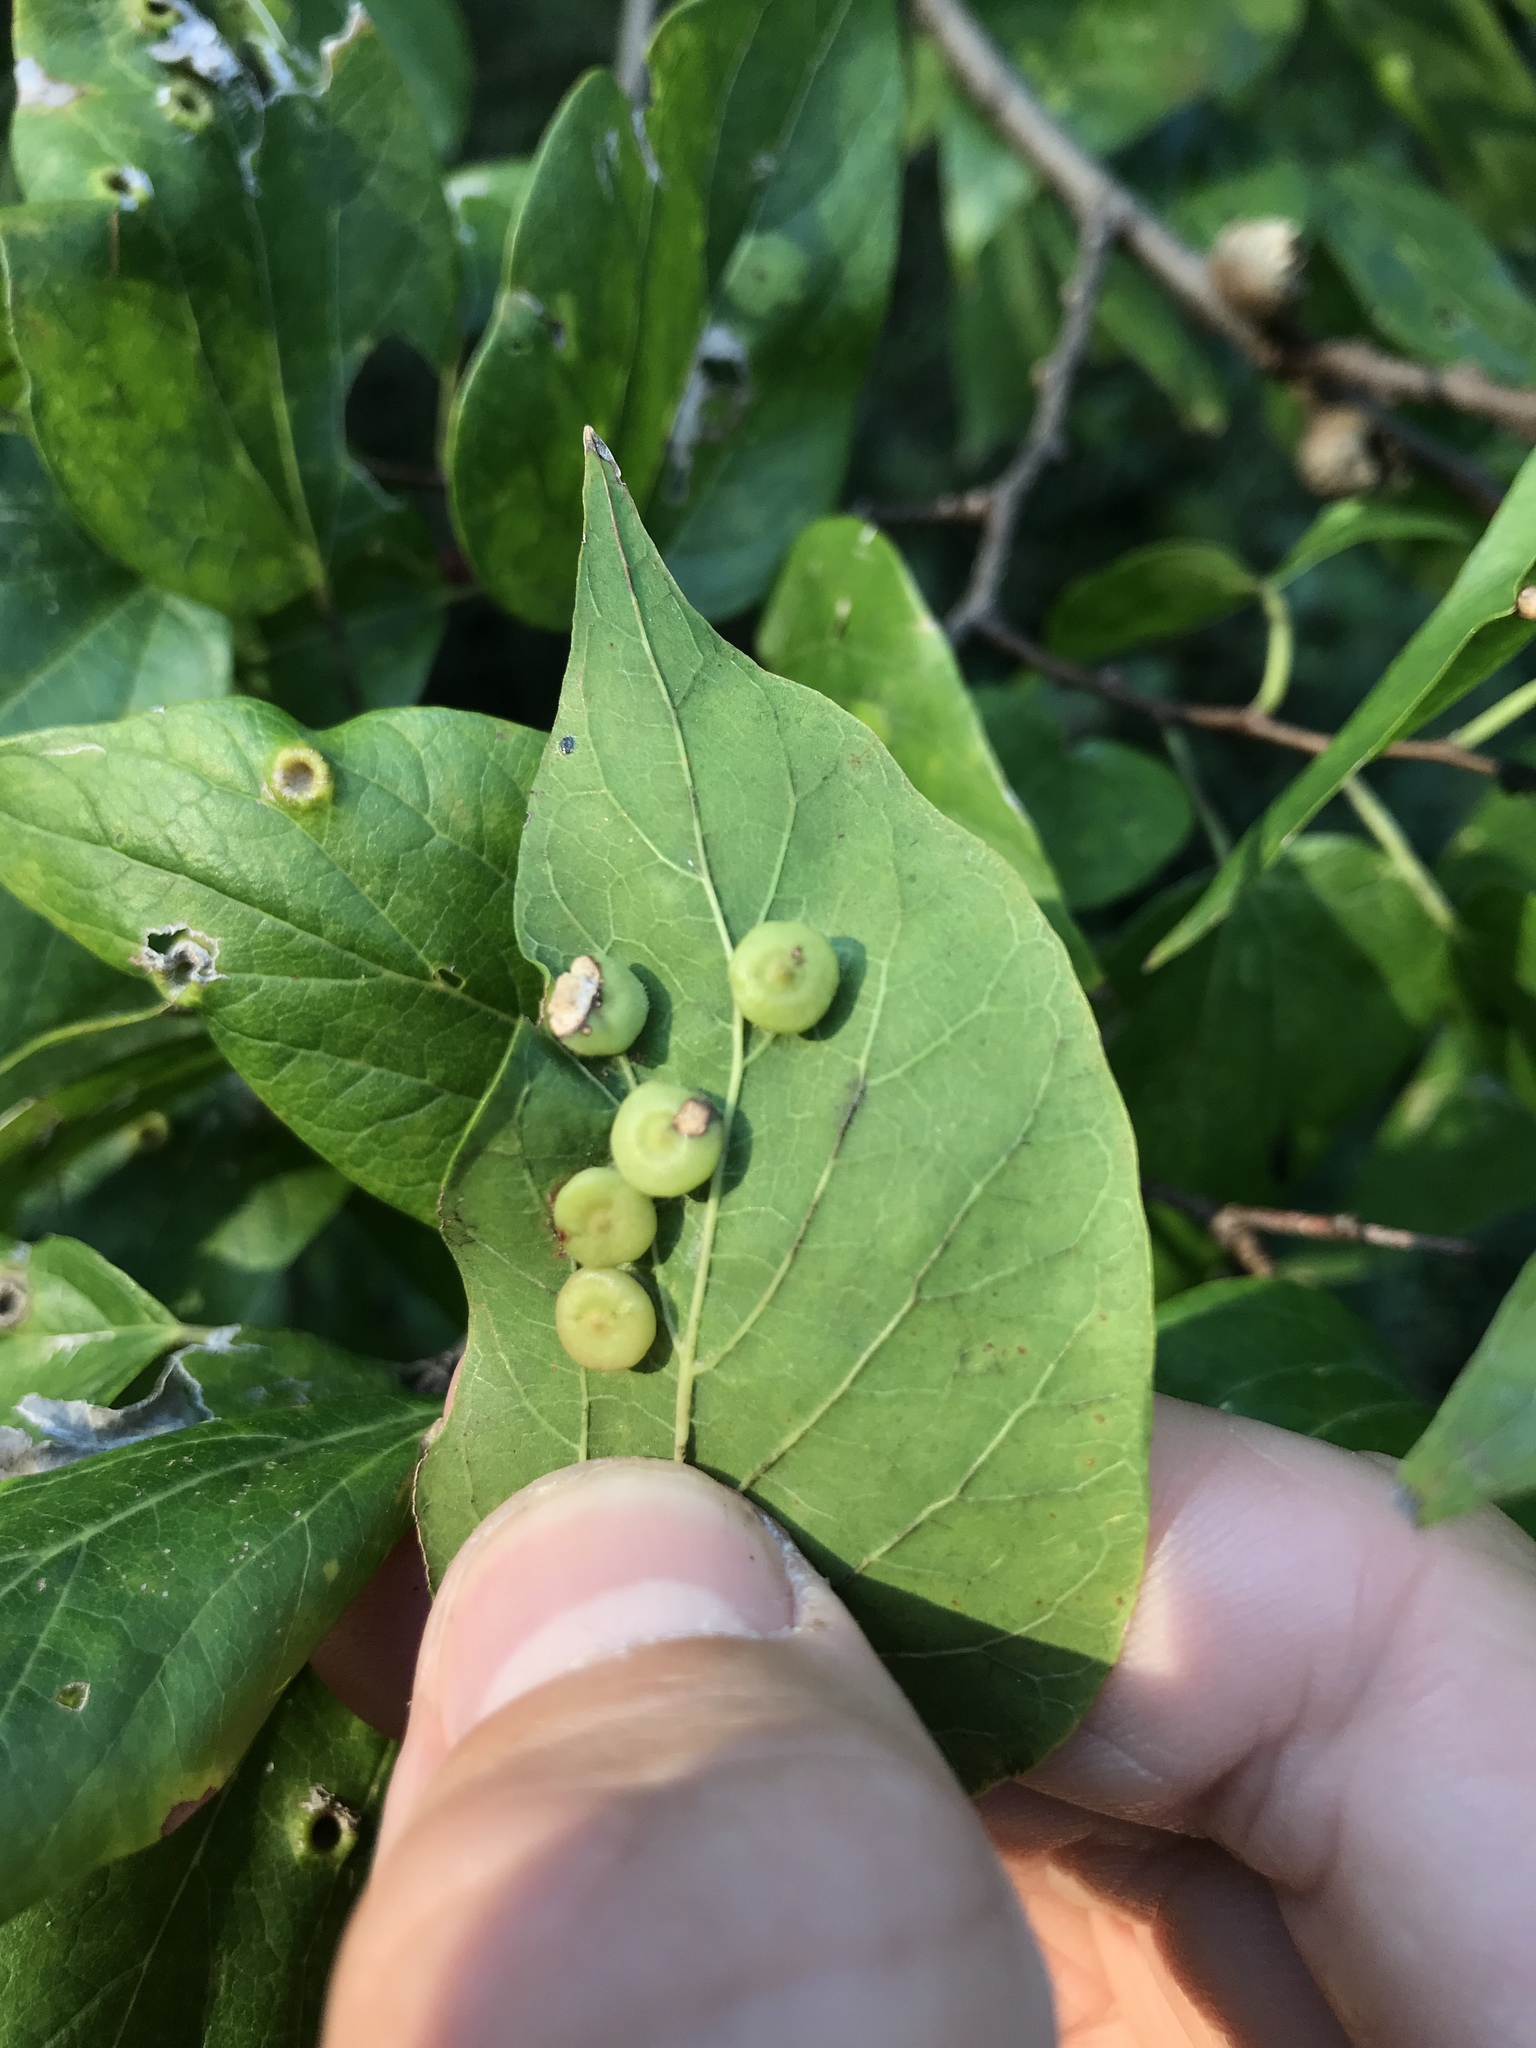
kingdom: Animalia
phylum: Arthropoda
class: Insecta
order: Hemiptera
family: Aphalaridae
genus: Pachypsylla
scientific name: Pachypsylla celtidismamma
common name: Hackberry nipplegall psyllid
